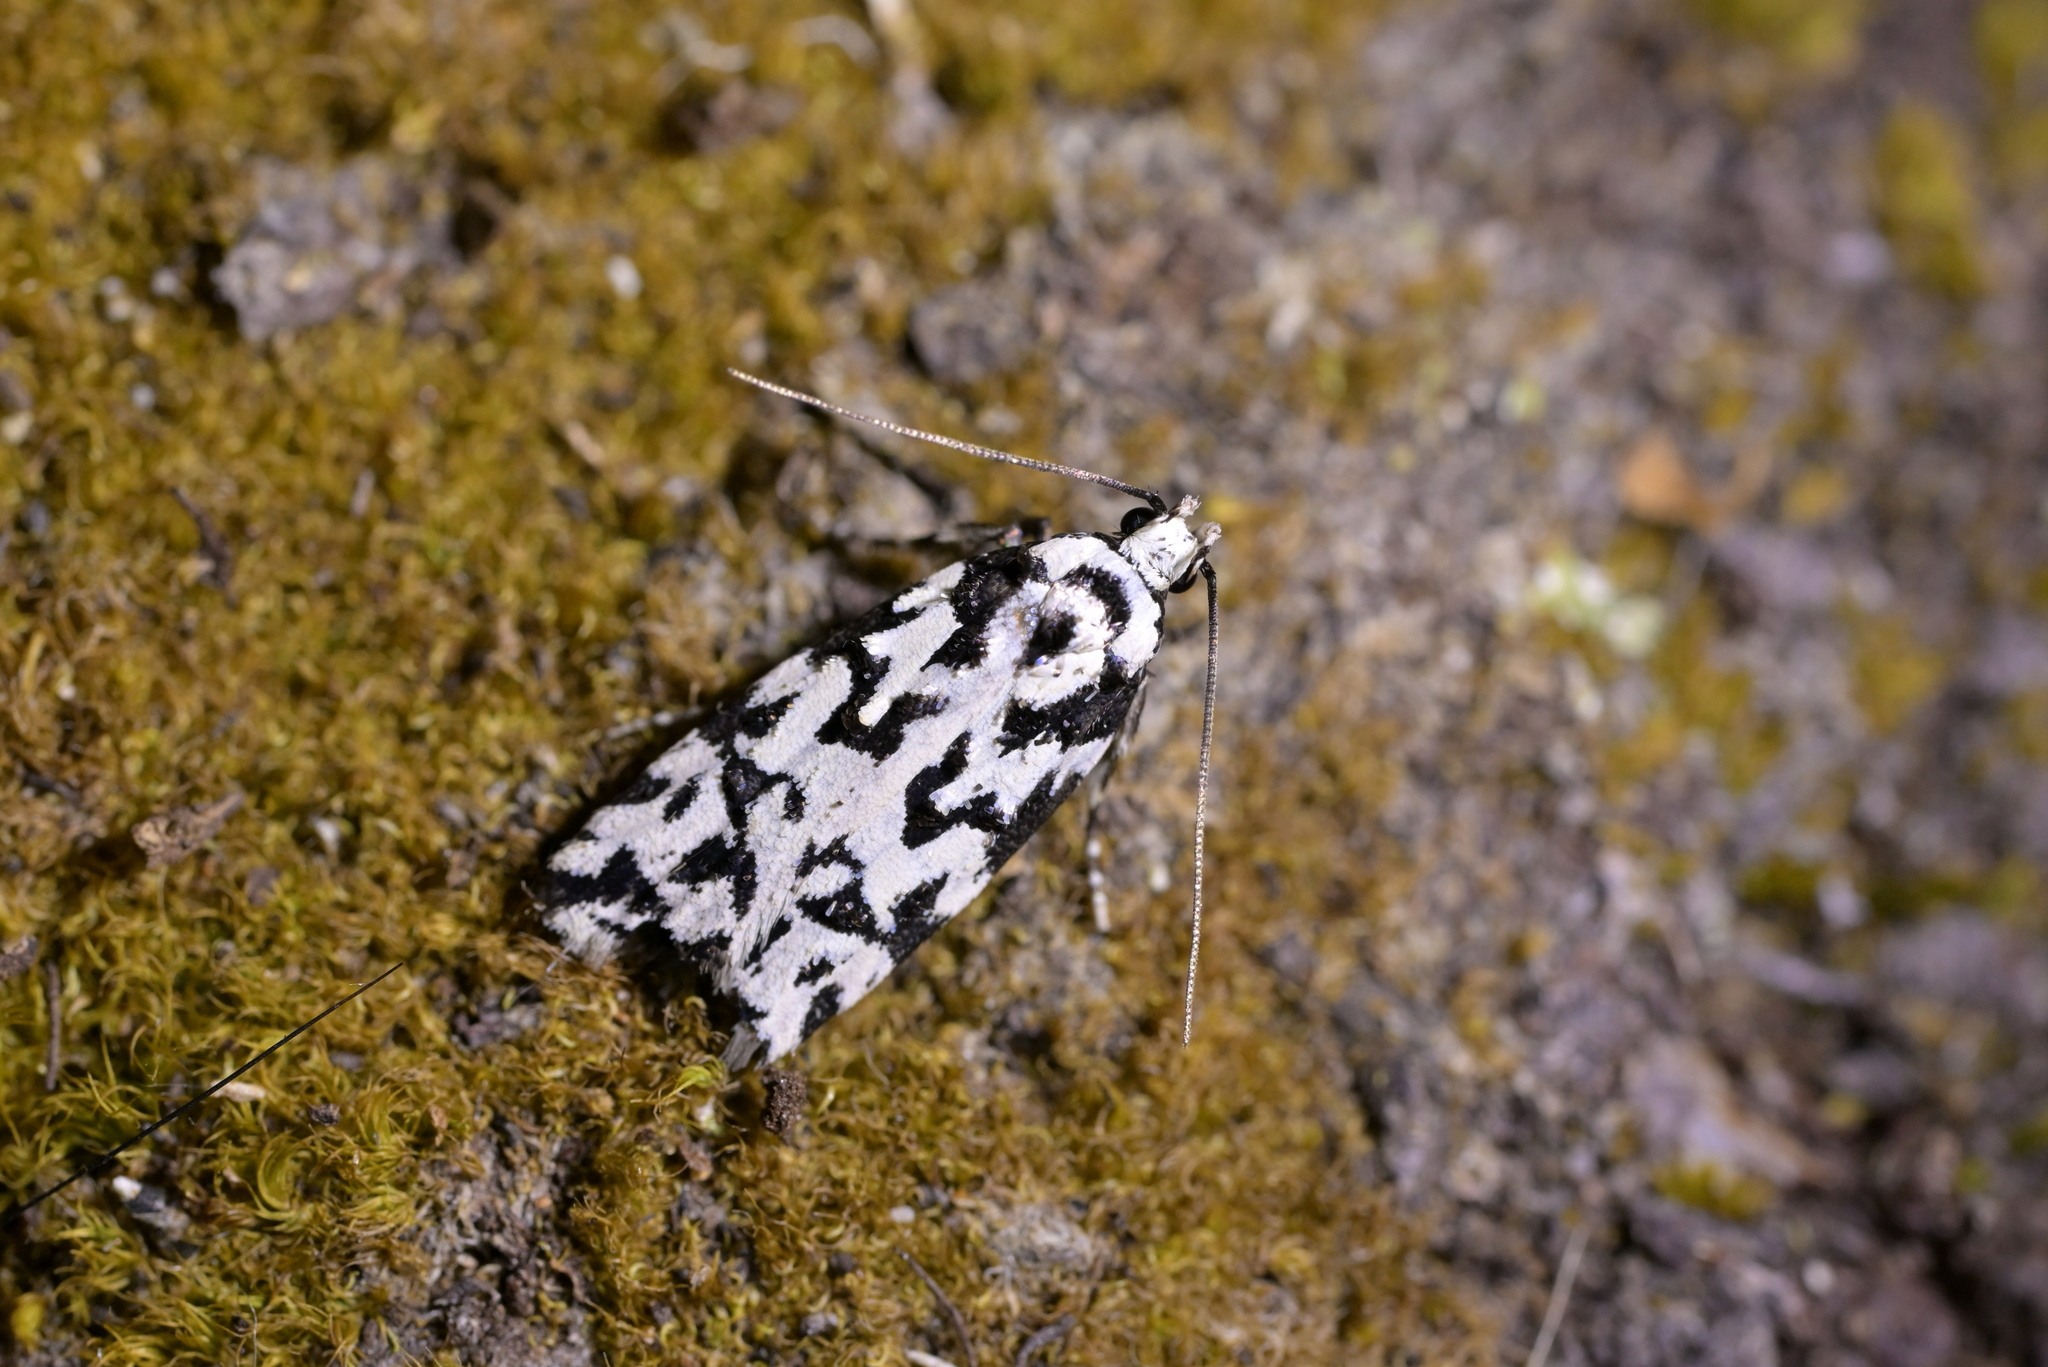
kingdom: Animalia
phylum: Arthropoda
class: Insecta
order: Lepidoptera
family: Oecophoridae
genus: Izatha
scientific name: Izatha
